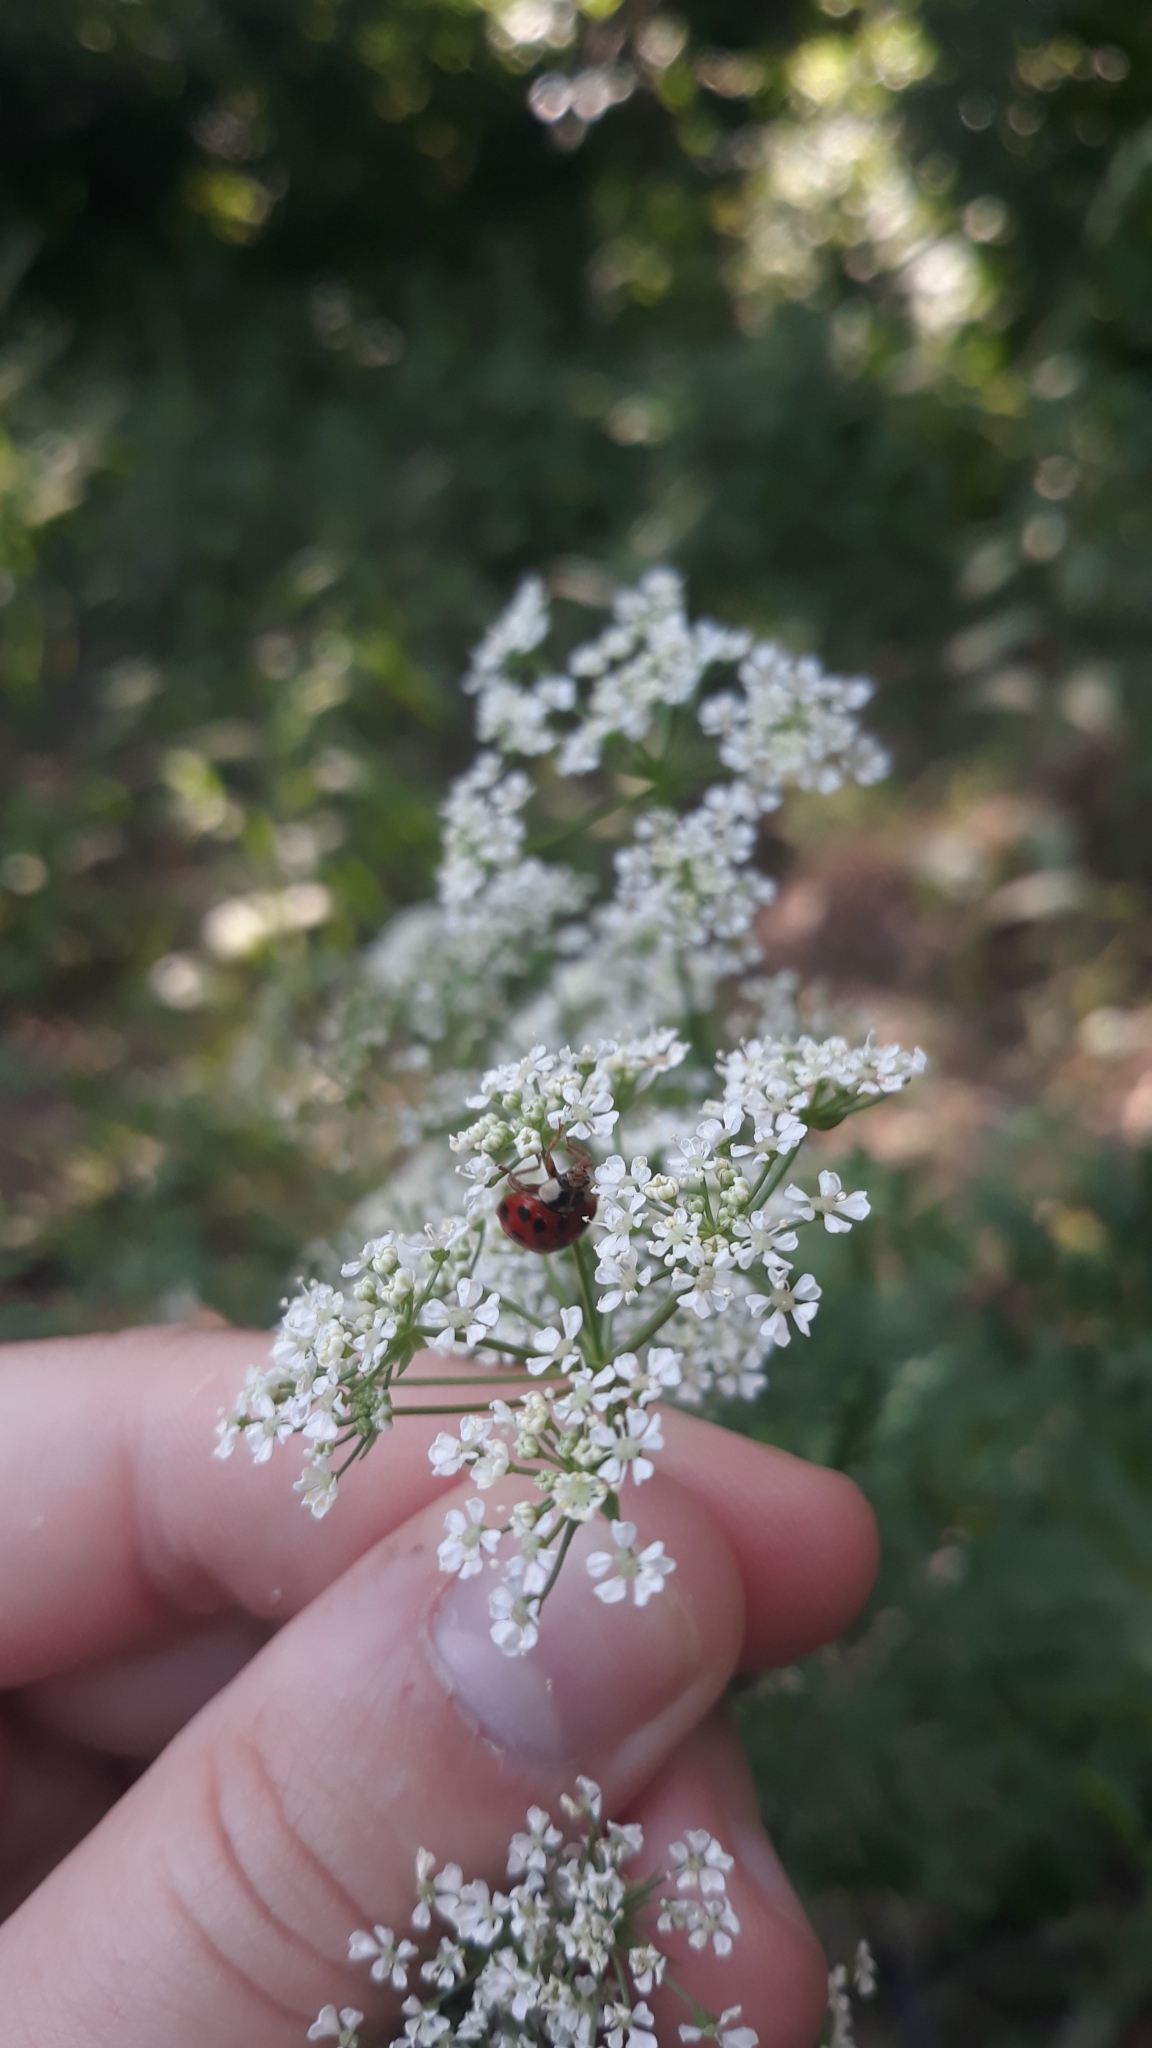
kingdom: Animalia
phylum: Arthropoda
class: Insecta
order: Coleoptera
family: Coccinellidae
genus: Harmonia
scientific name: Harmonia axyridis
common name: Harlequin ladybird
